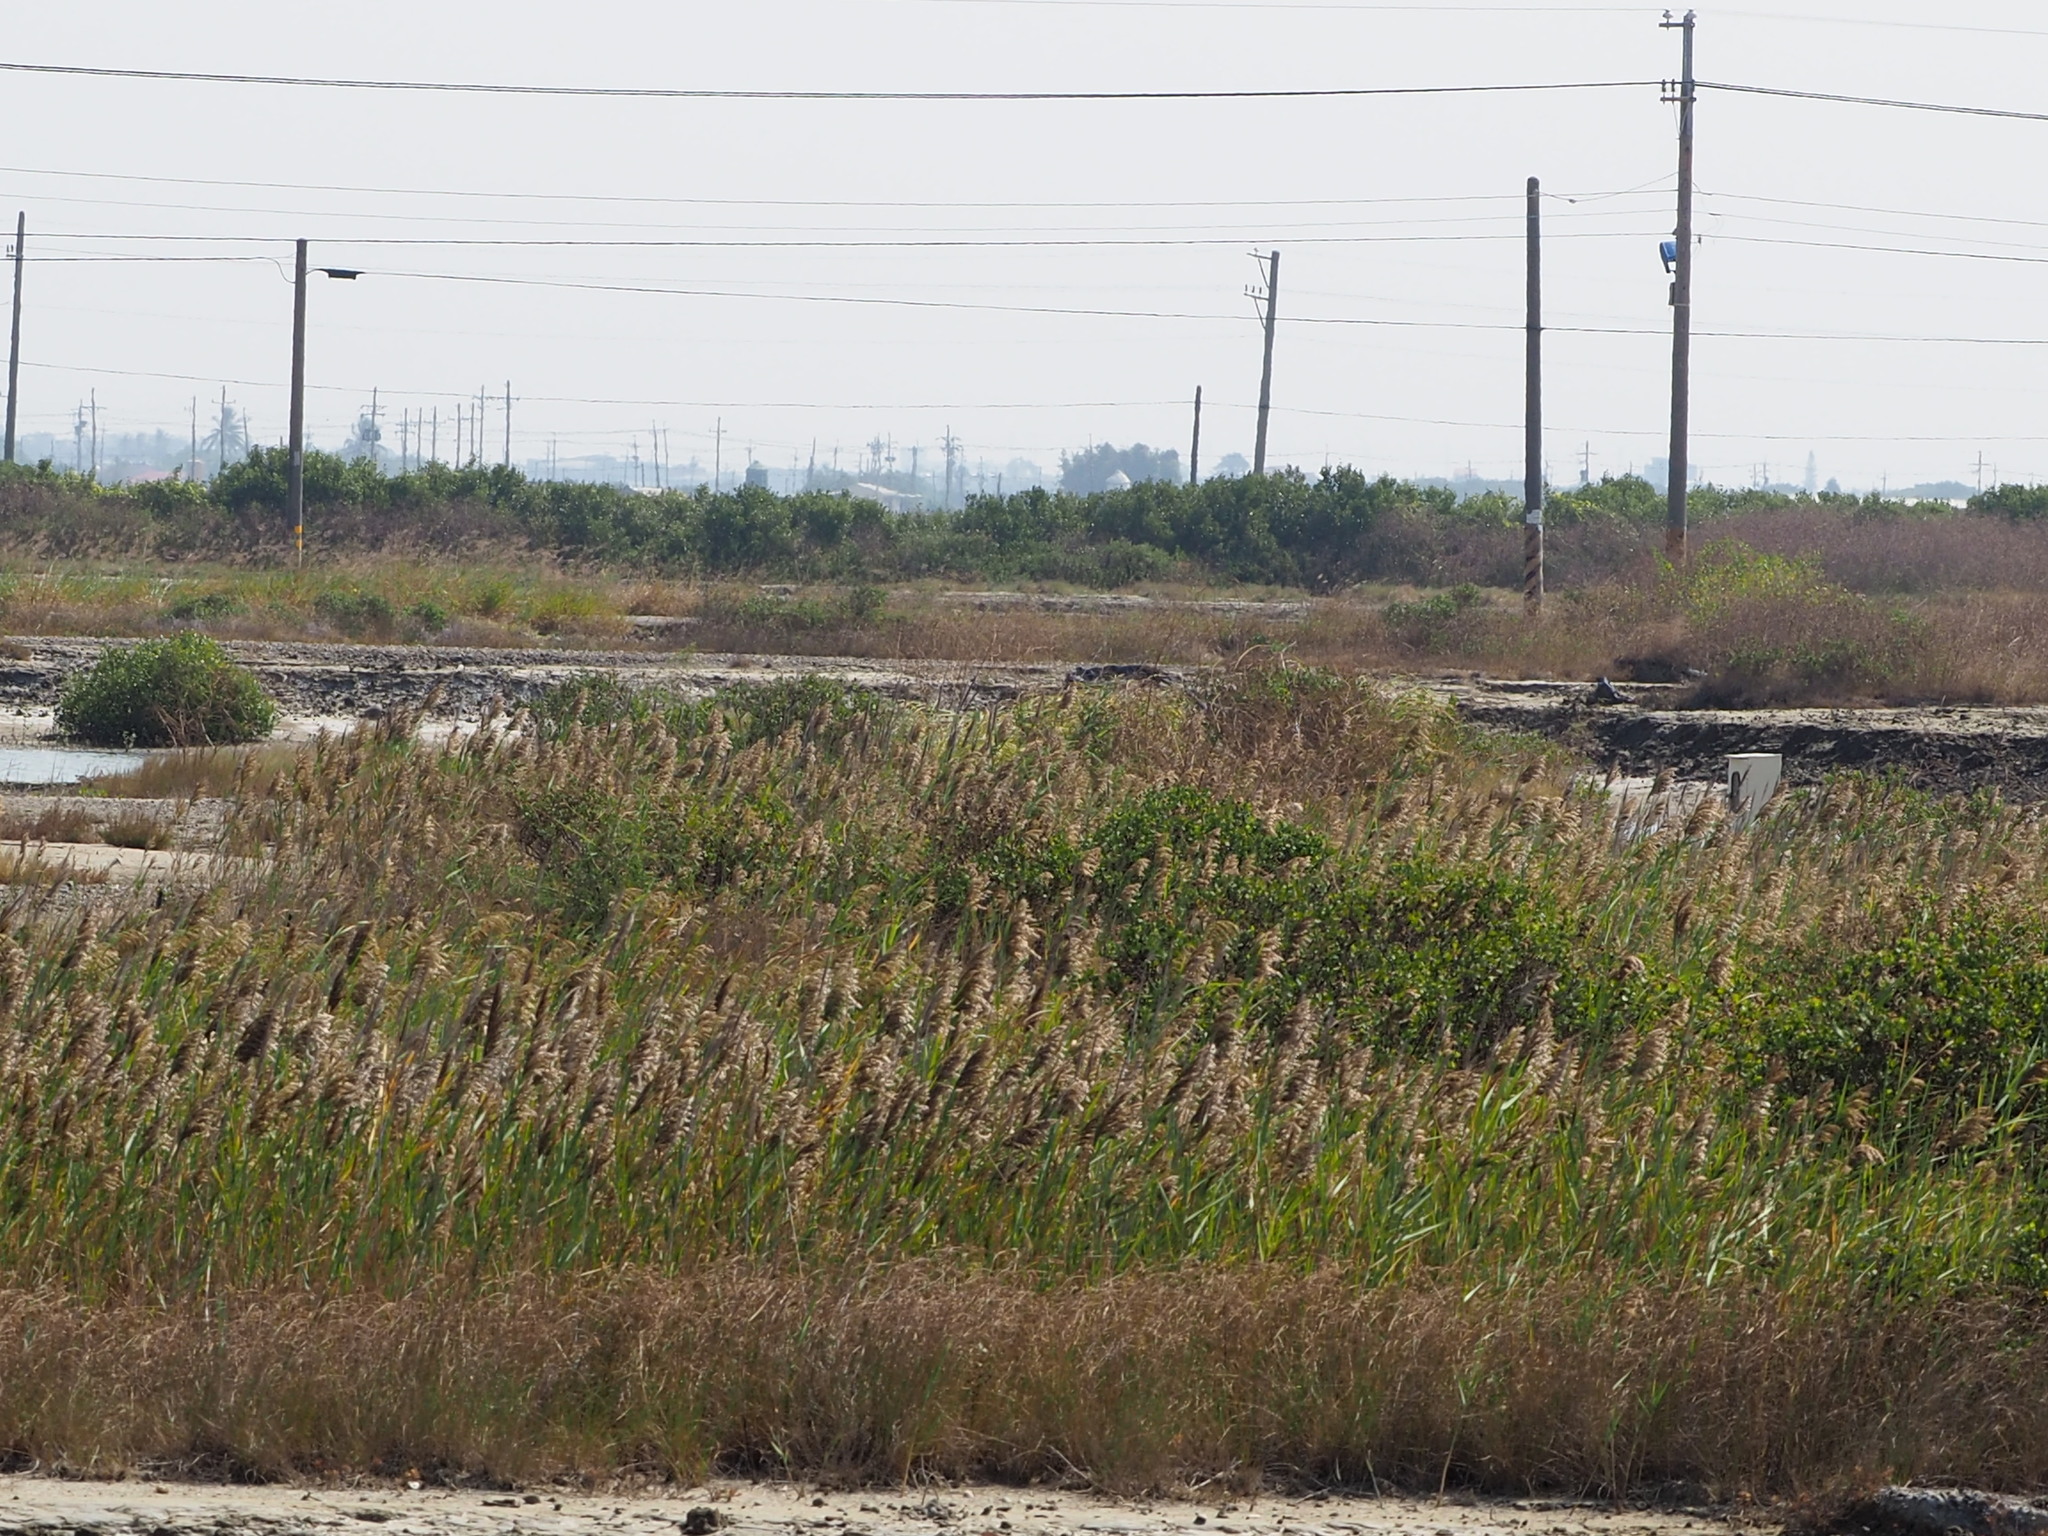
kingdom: Plantae
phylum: Tracheophyta
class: Liliopsida
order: Poales
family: Poaceae
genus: Phragmites
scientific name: Phragmites australis
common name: Common reed
